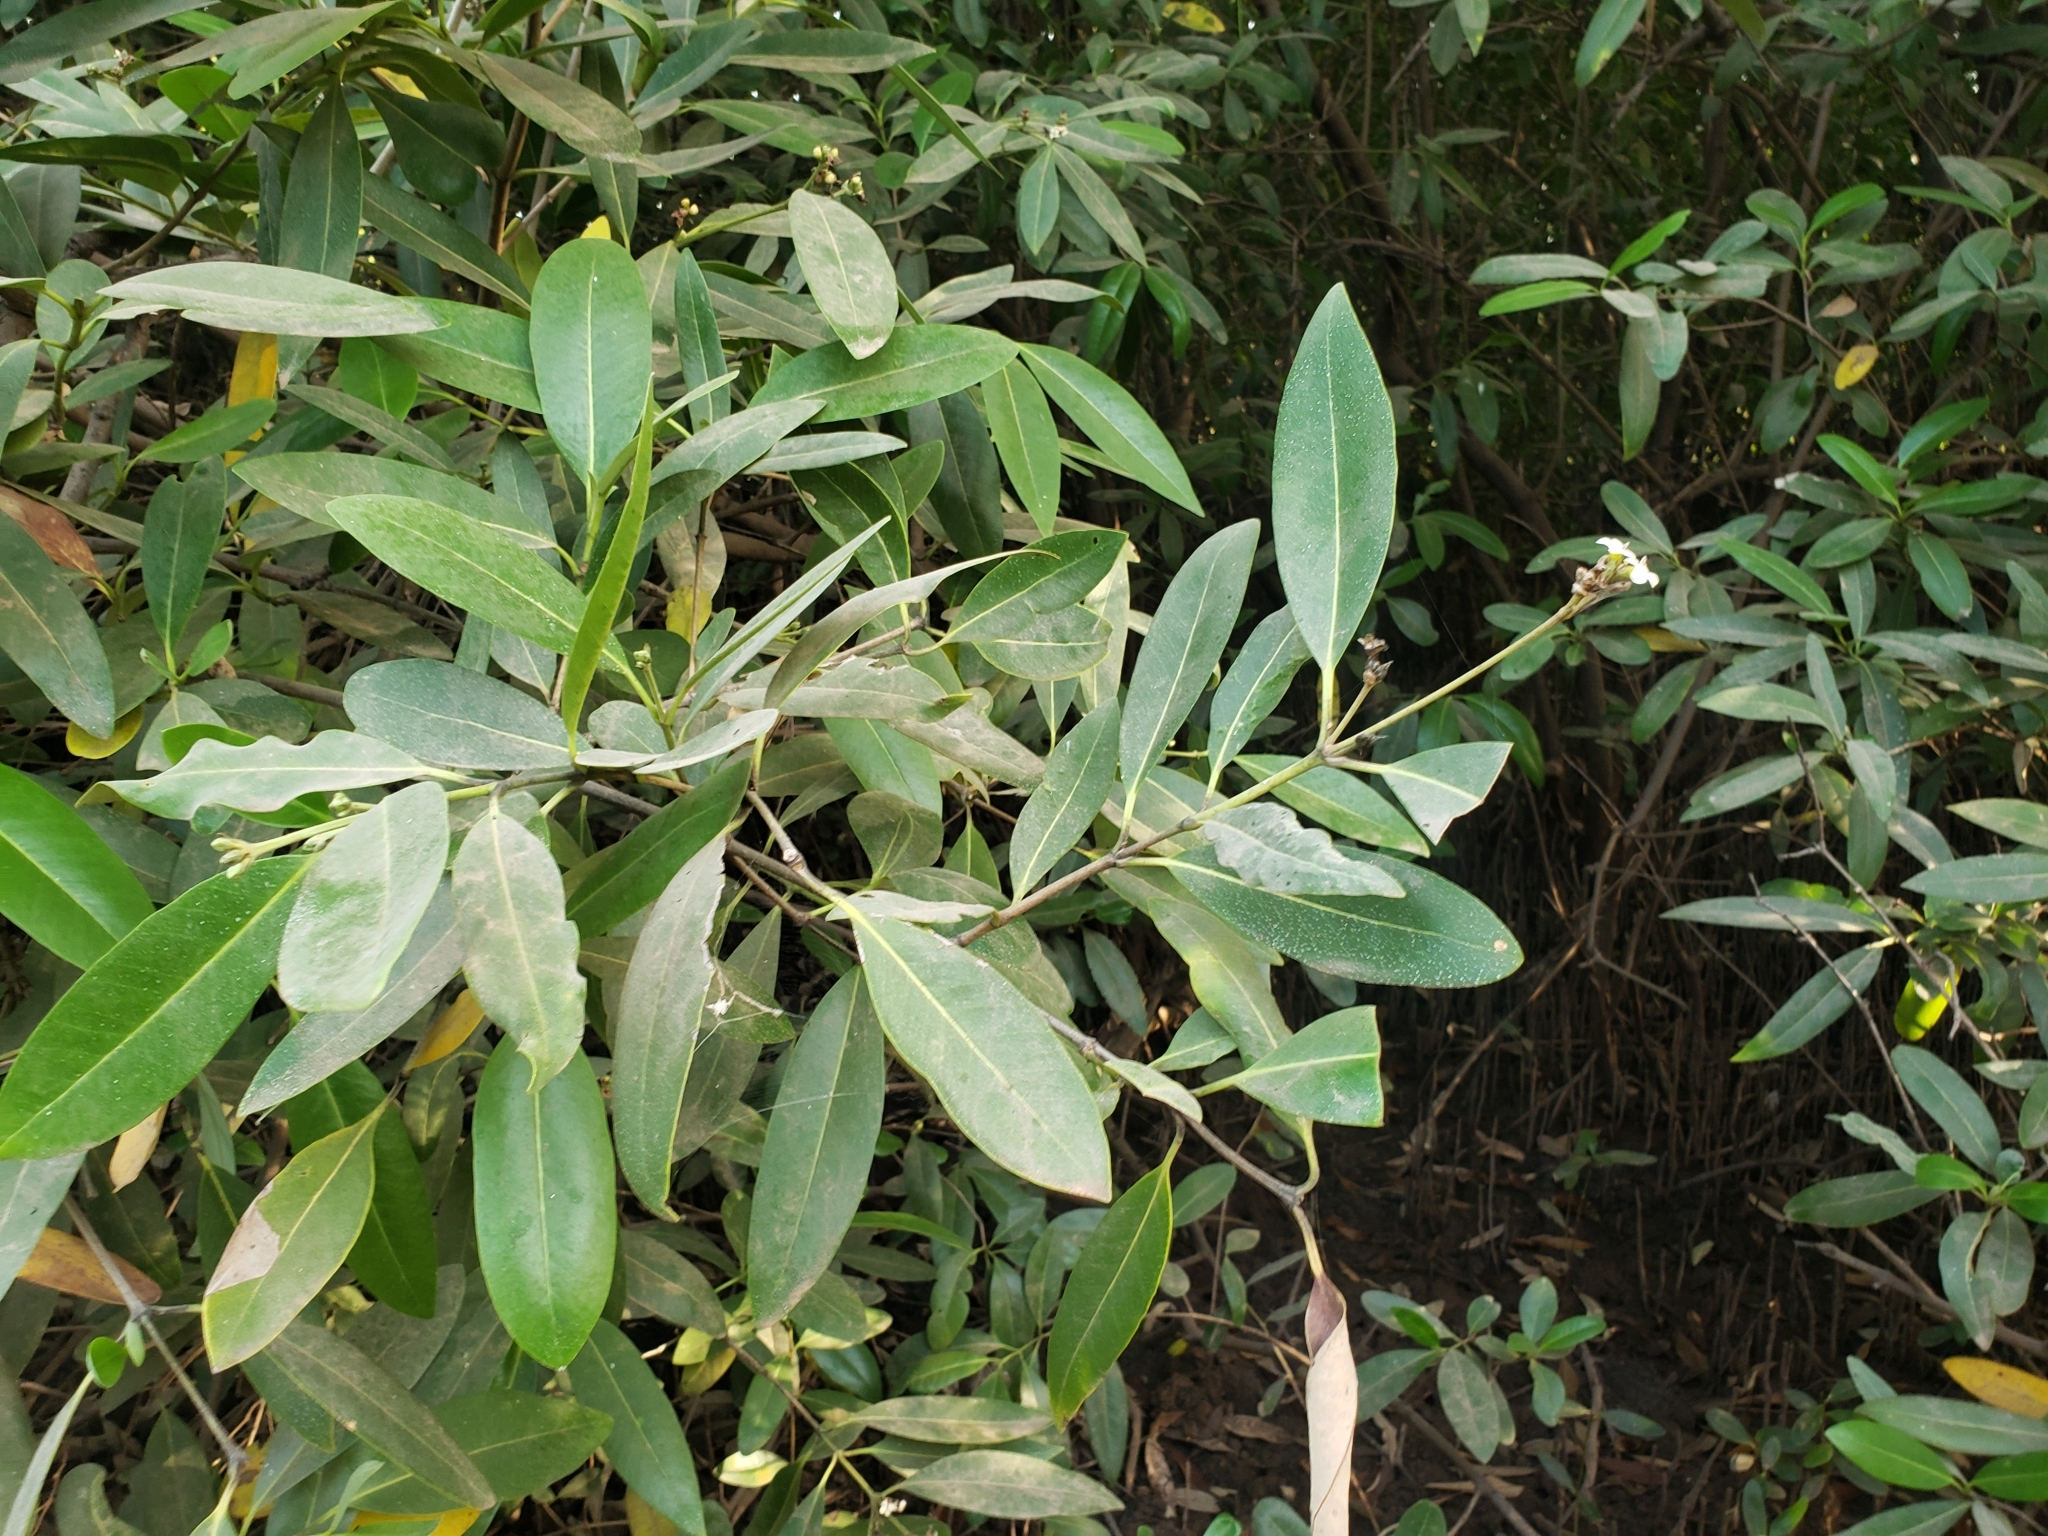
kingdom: Plantae
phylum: Tracheophyta
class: Magnoliopsida
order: Lamiales
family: Acanthaceae
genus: Avicennia
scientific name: Avicennia germinans
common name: Black mangrove
